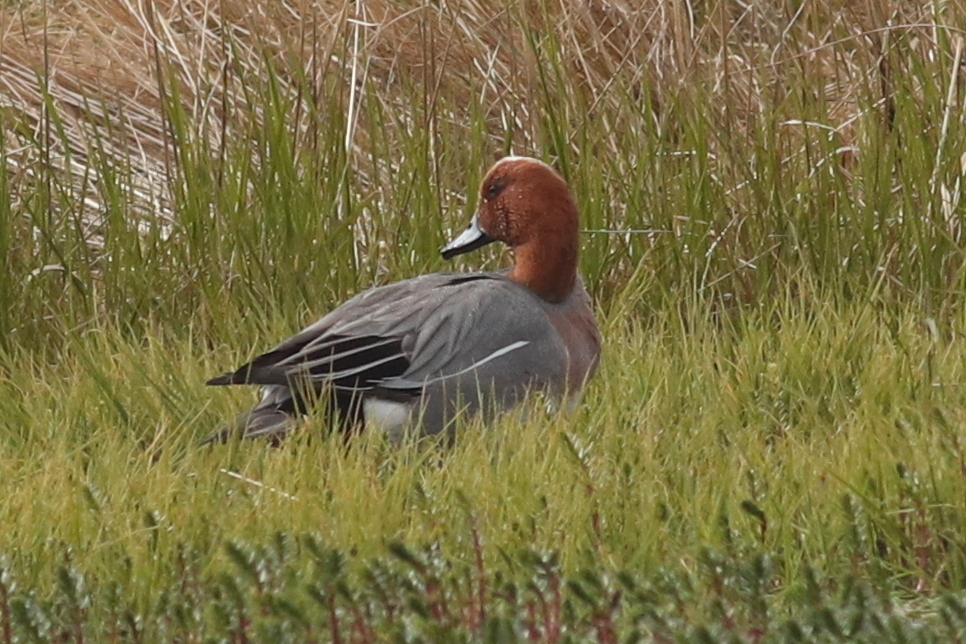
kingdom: Animalia
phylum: Chordata
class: Aves
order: Anseriformes
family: Anatidae
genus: Mareca
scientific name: Mareca penelope
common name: Eurasian wigeon
